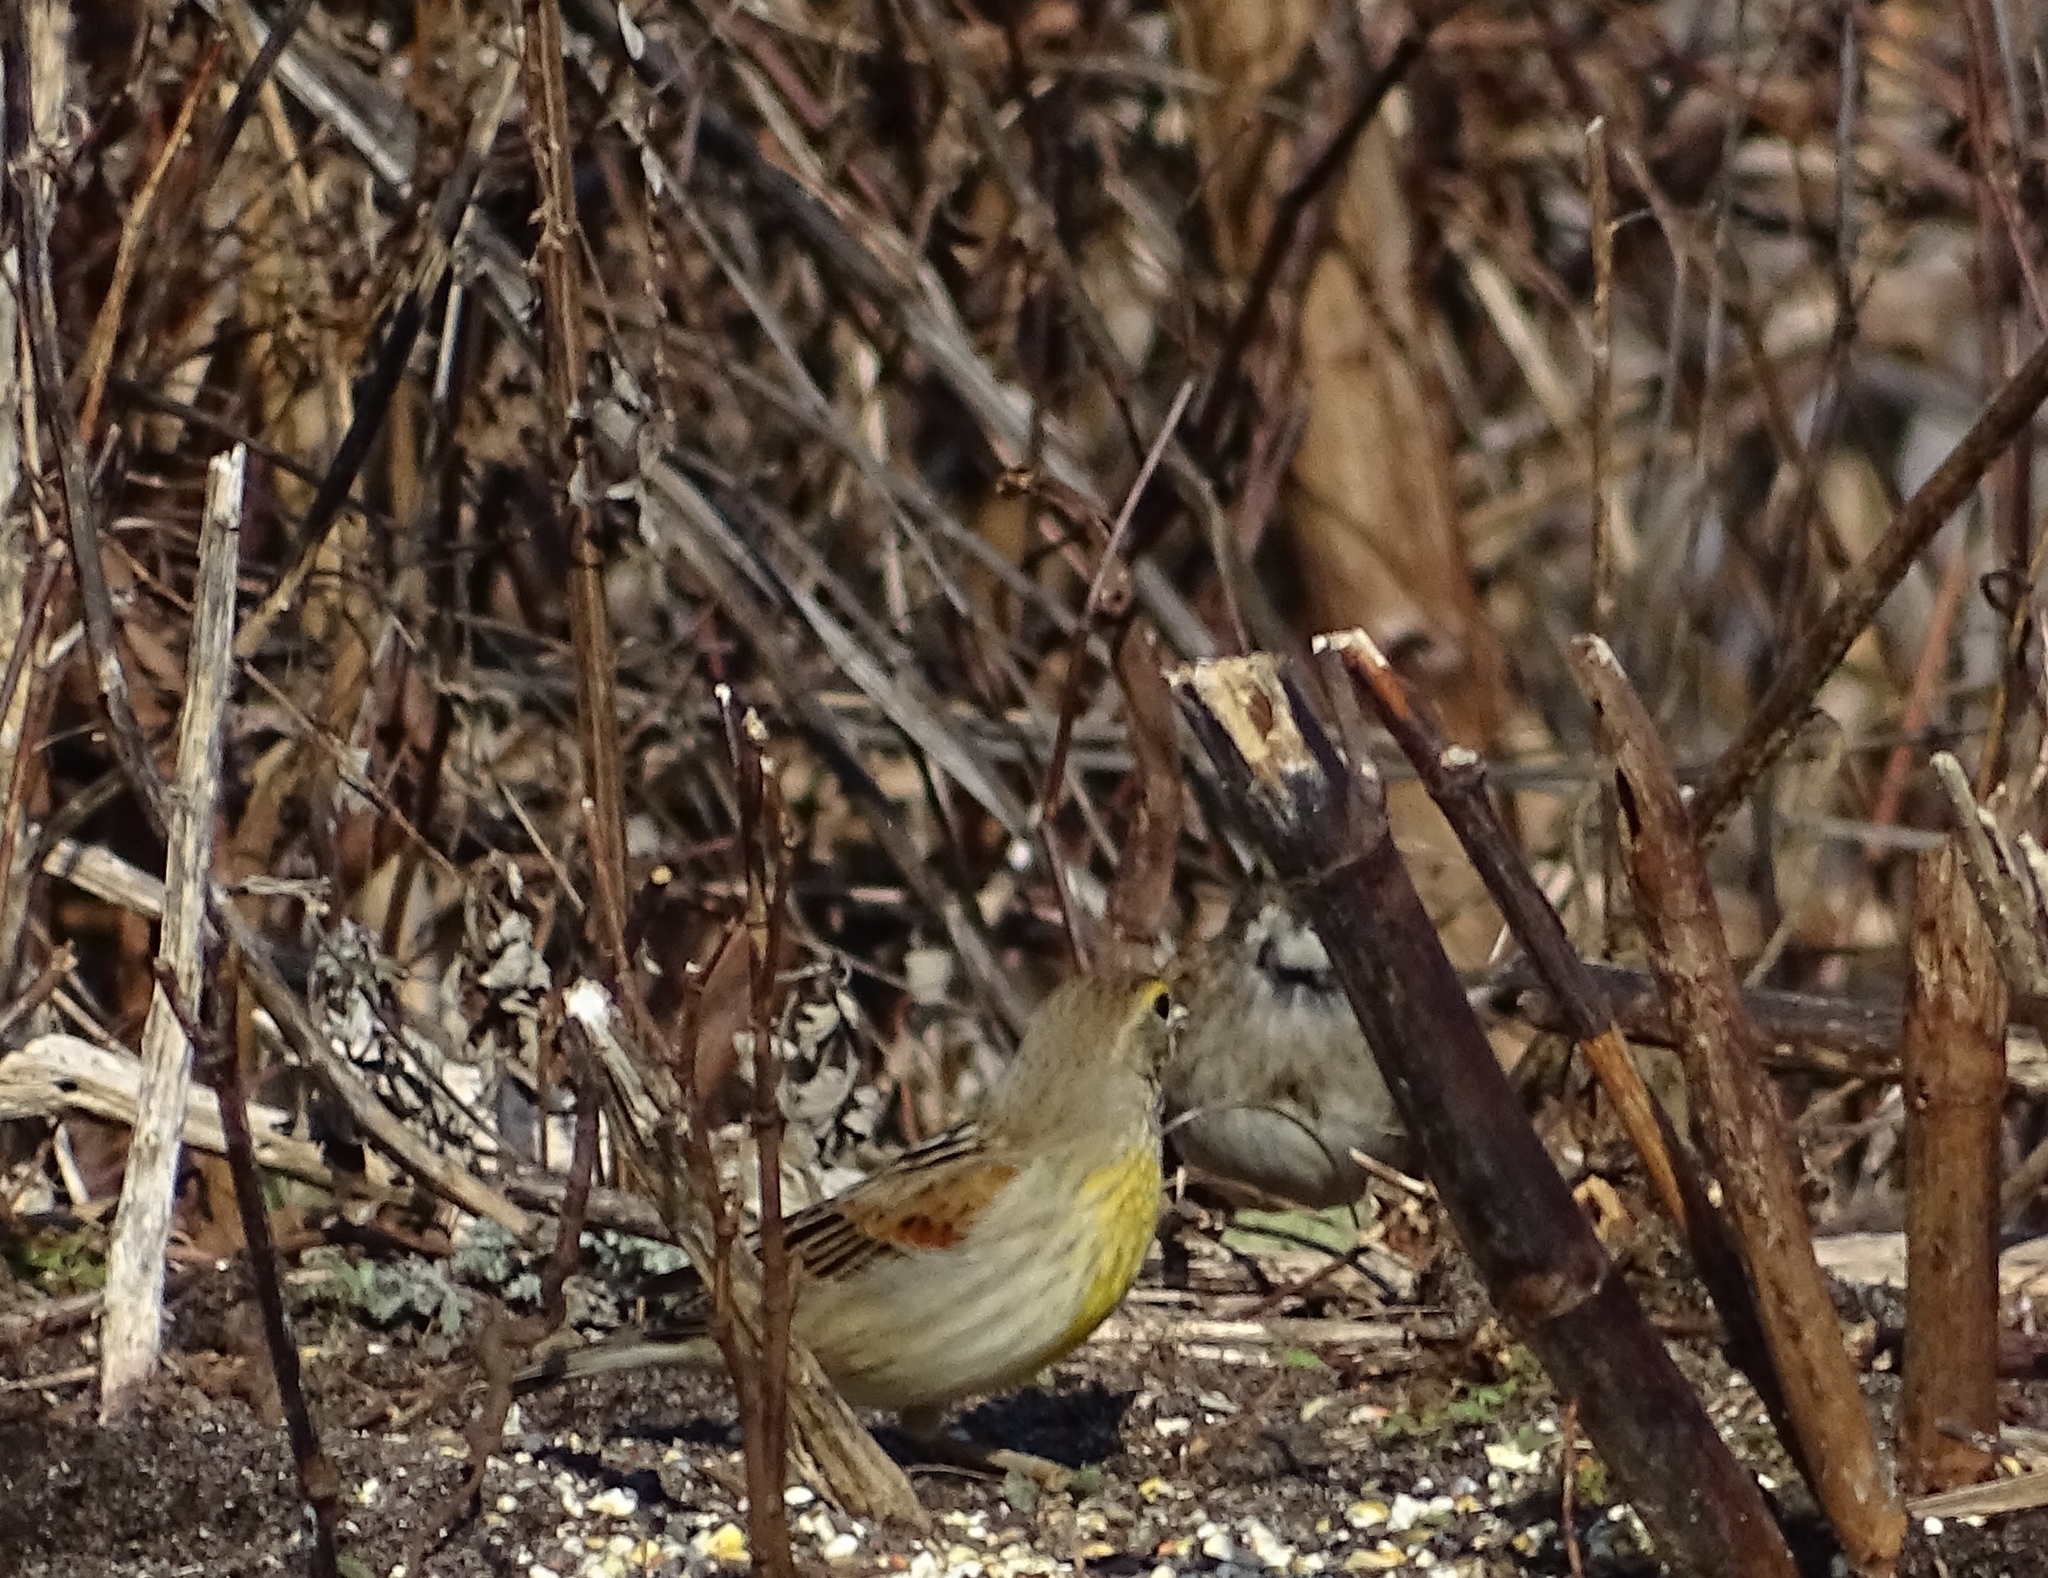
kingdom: Animalia
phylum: Chordata
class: Aves
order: Passeriformes
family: Cardinalidae
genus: Spiza
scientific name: Spiza americana
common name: Dickcissel
